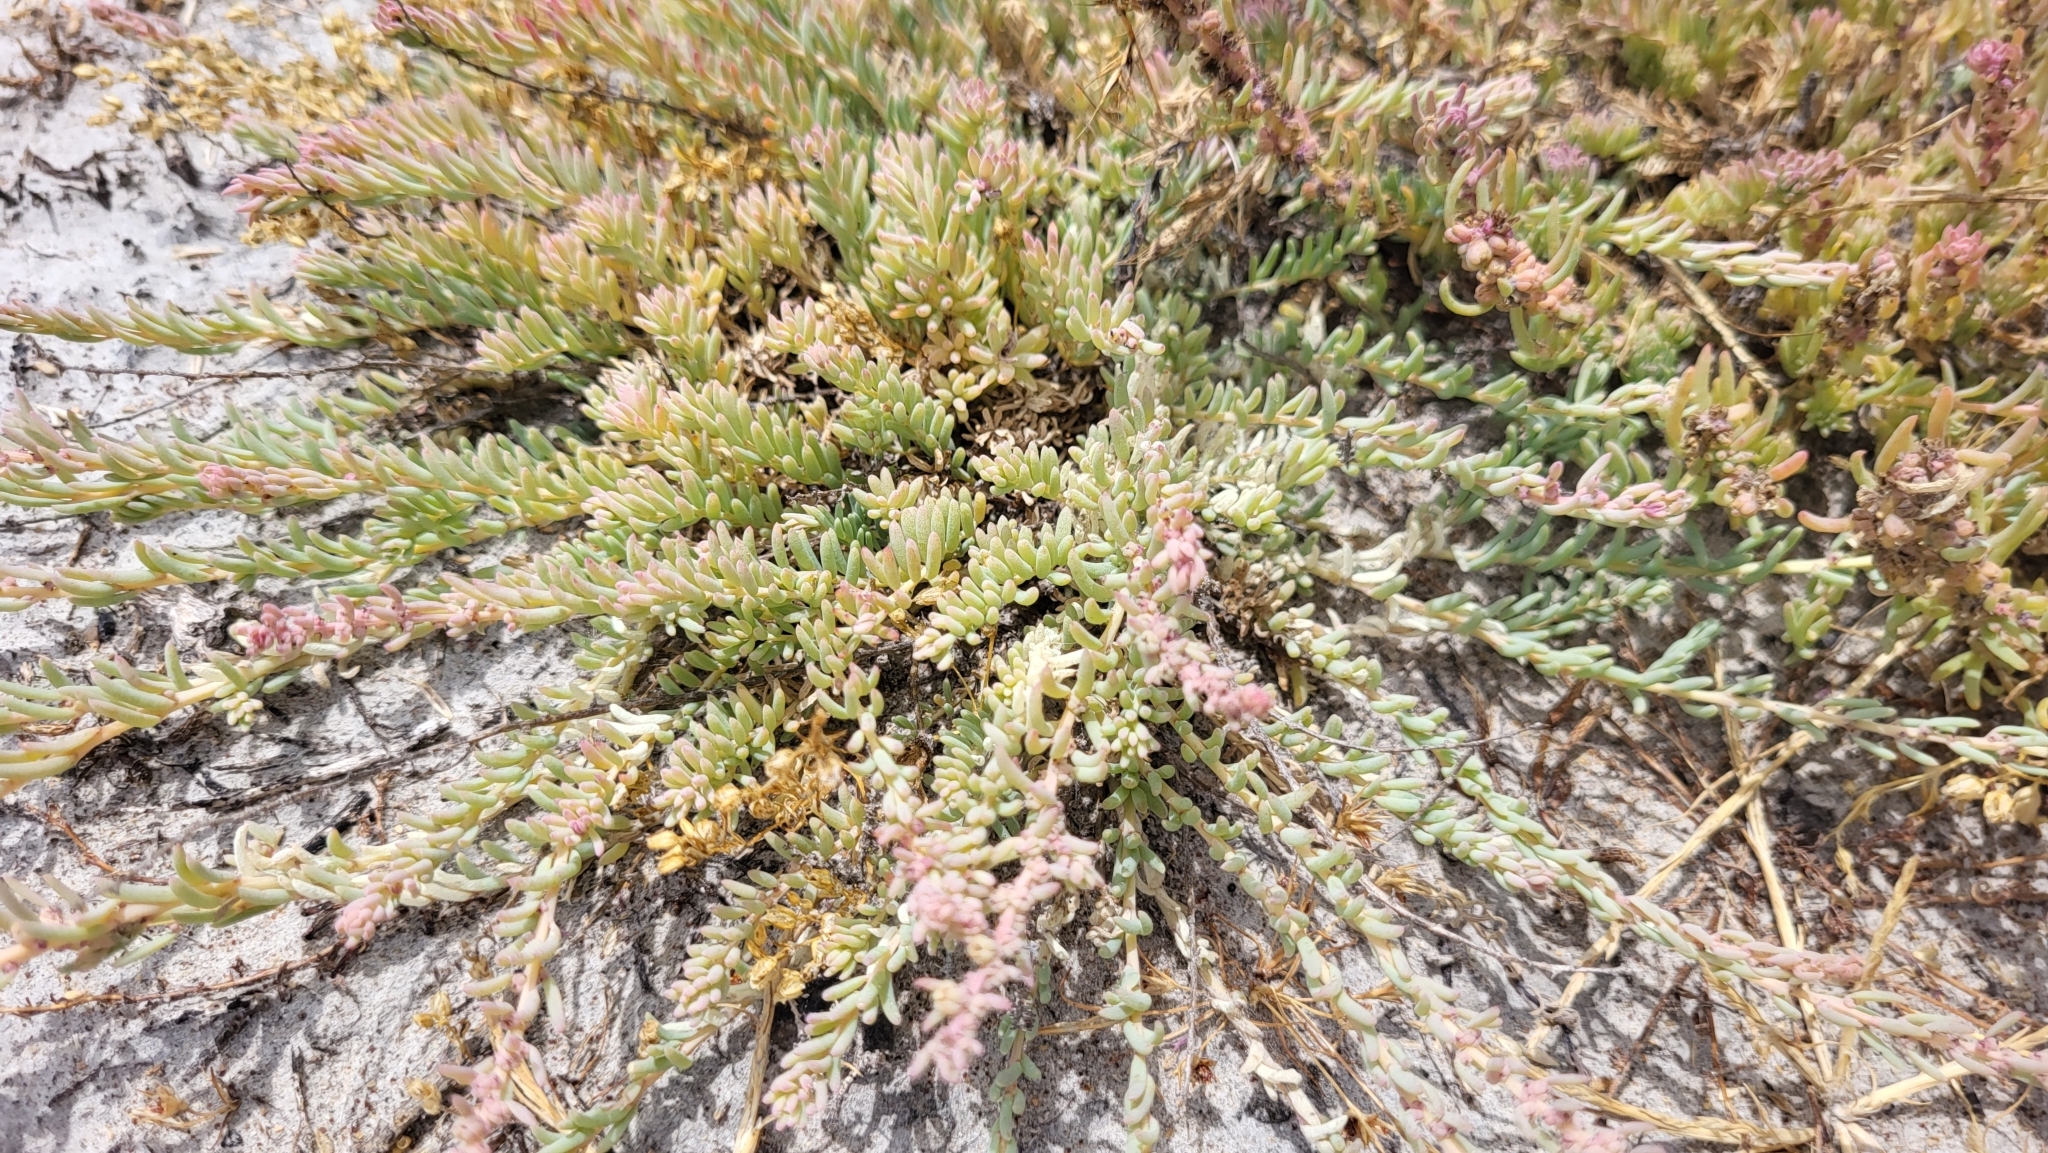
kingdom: Plantae
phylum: Tracheophyta
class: Magnoliopsida
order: Caryophyllales
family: Amaranthaceae
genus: Suaeda
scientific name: Suaeda nigra
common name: Bush seepweed
